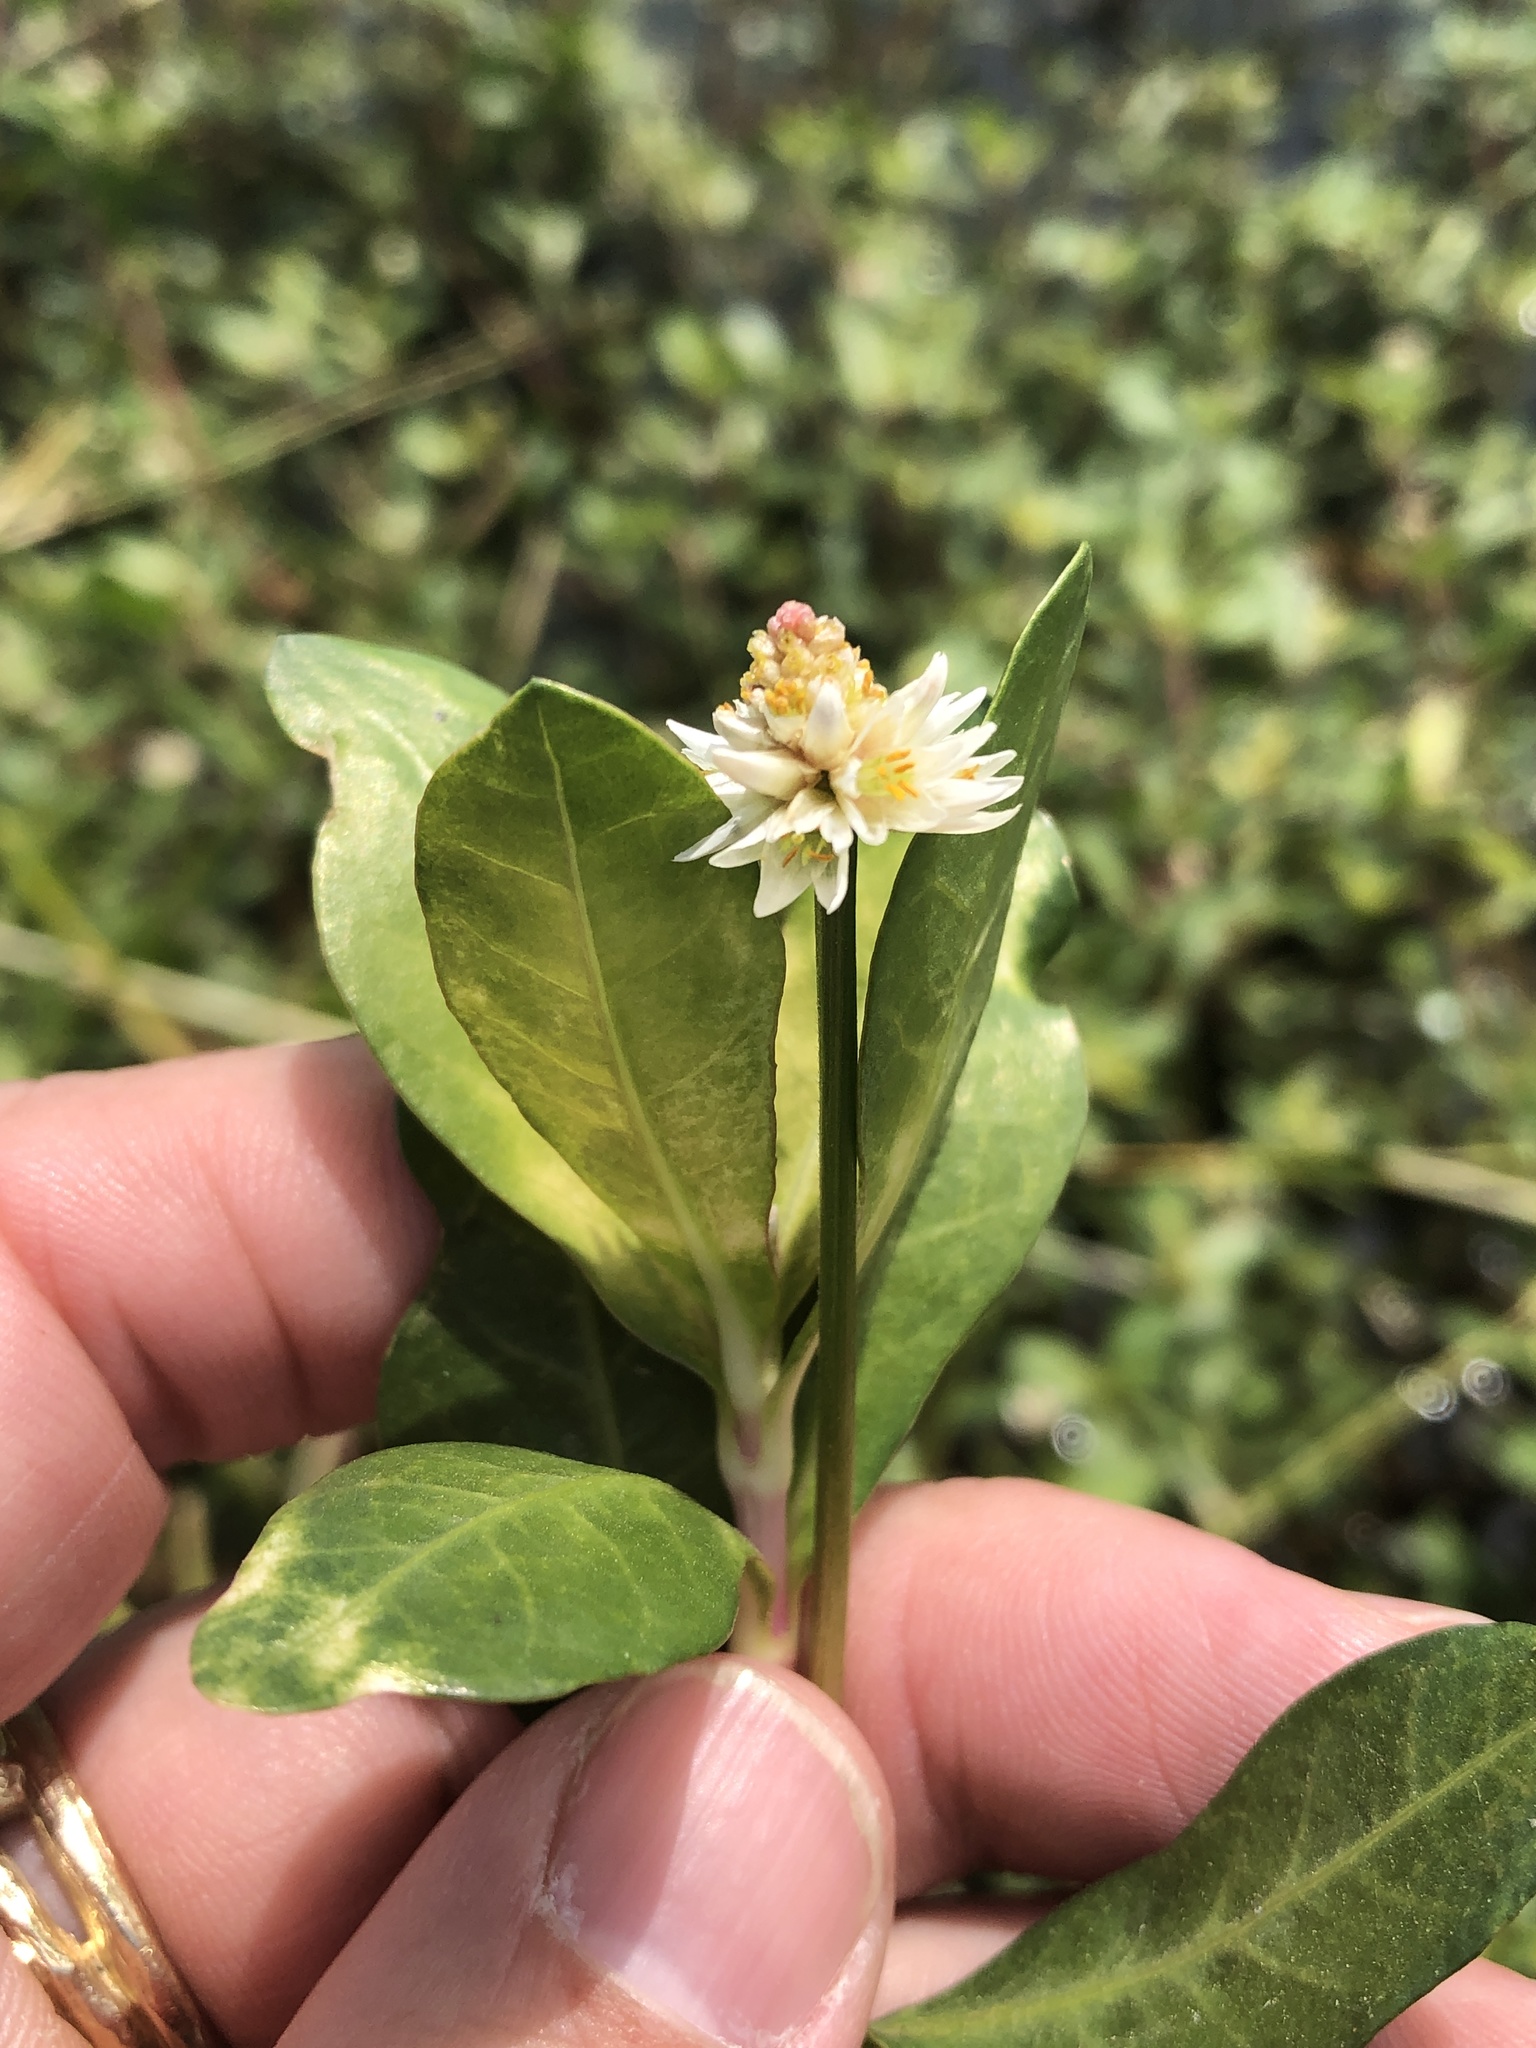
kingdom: Plantae
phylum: Tracheophyta
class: Magnoliopsida
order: Caryophyllales
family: Amaranthaceae
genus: Alternanthera
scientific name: Alternanthera philoxeroides
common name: Alligatorweed
